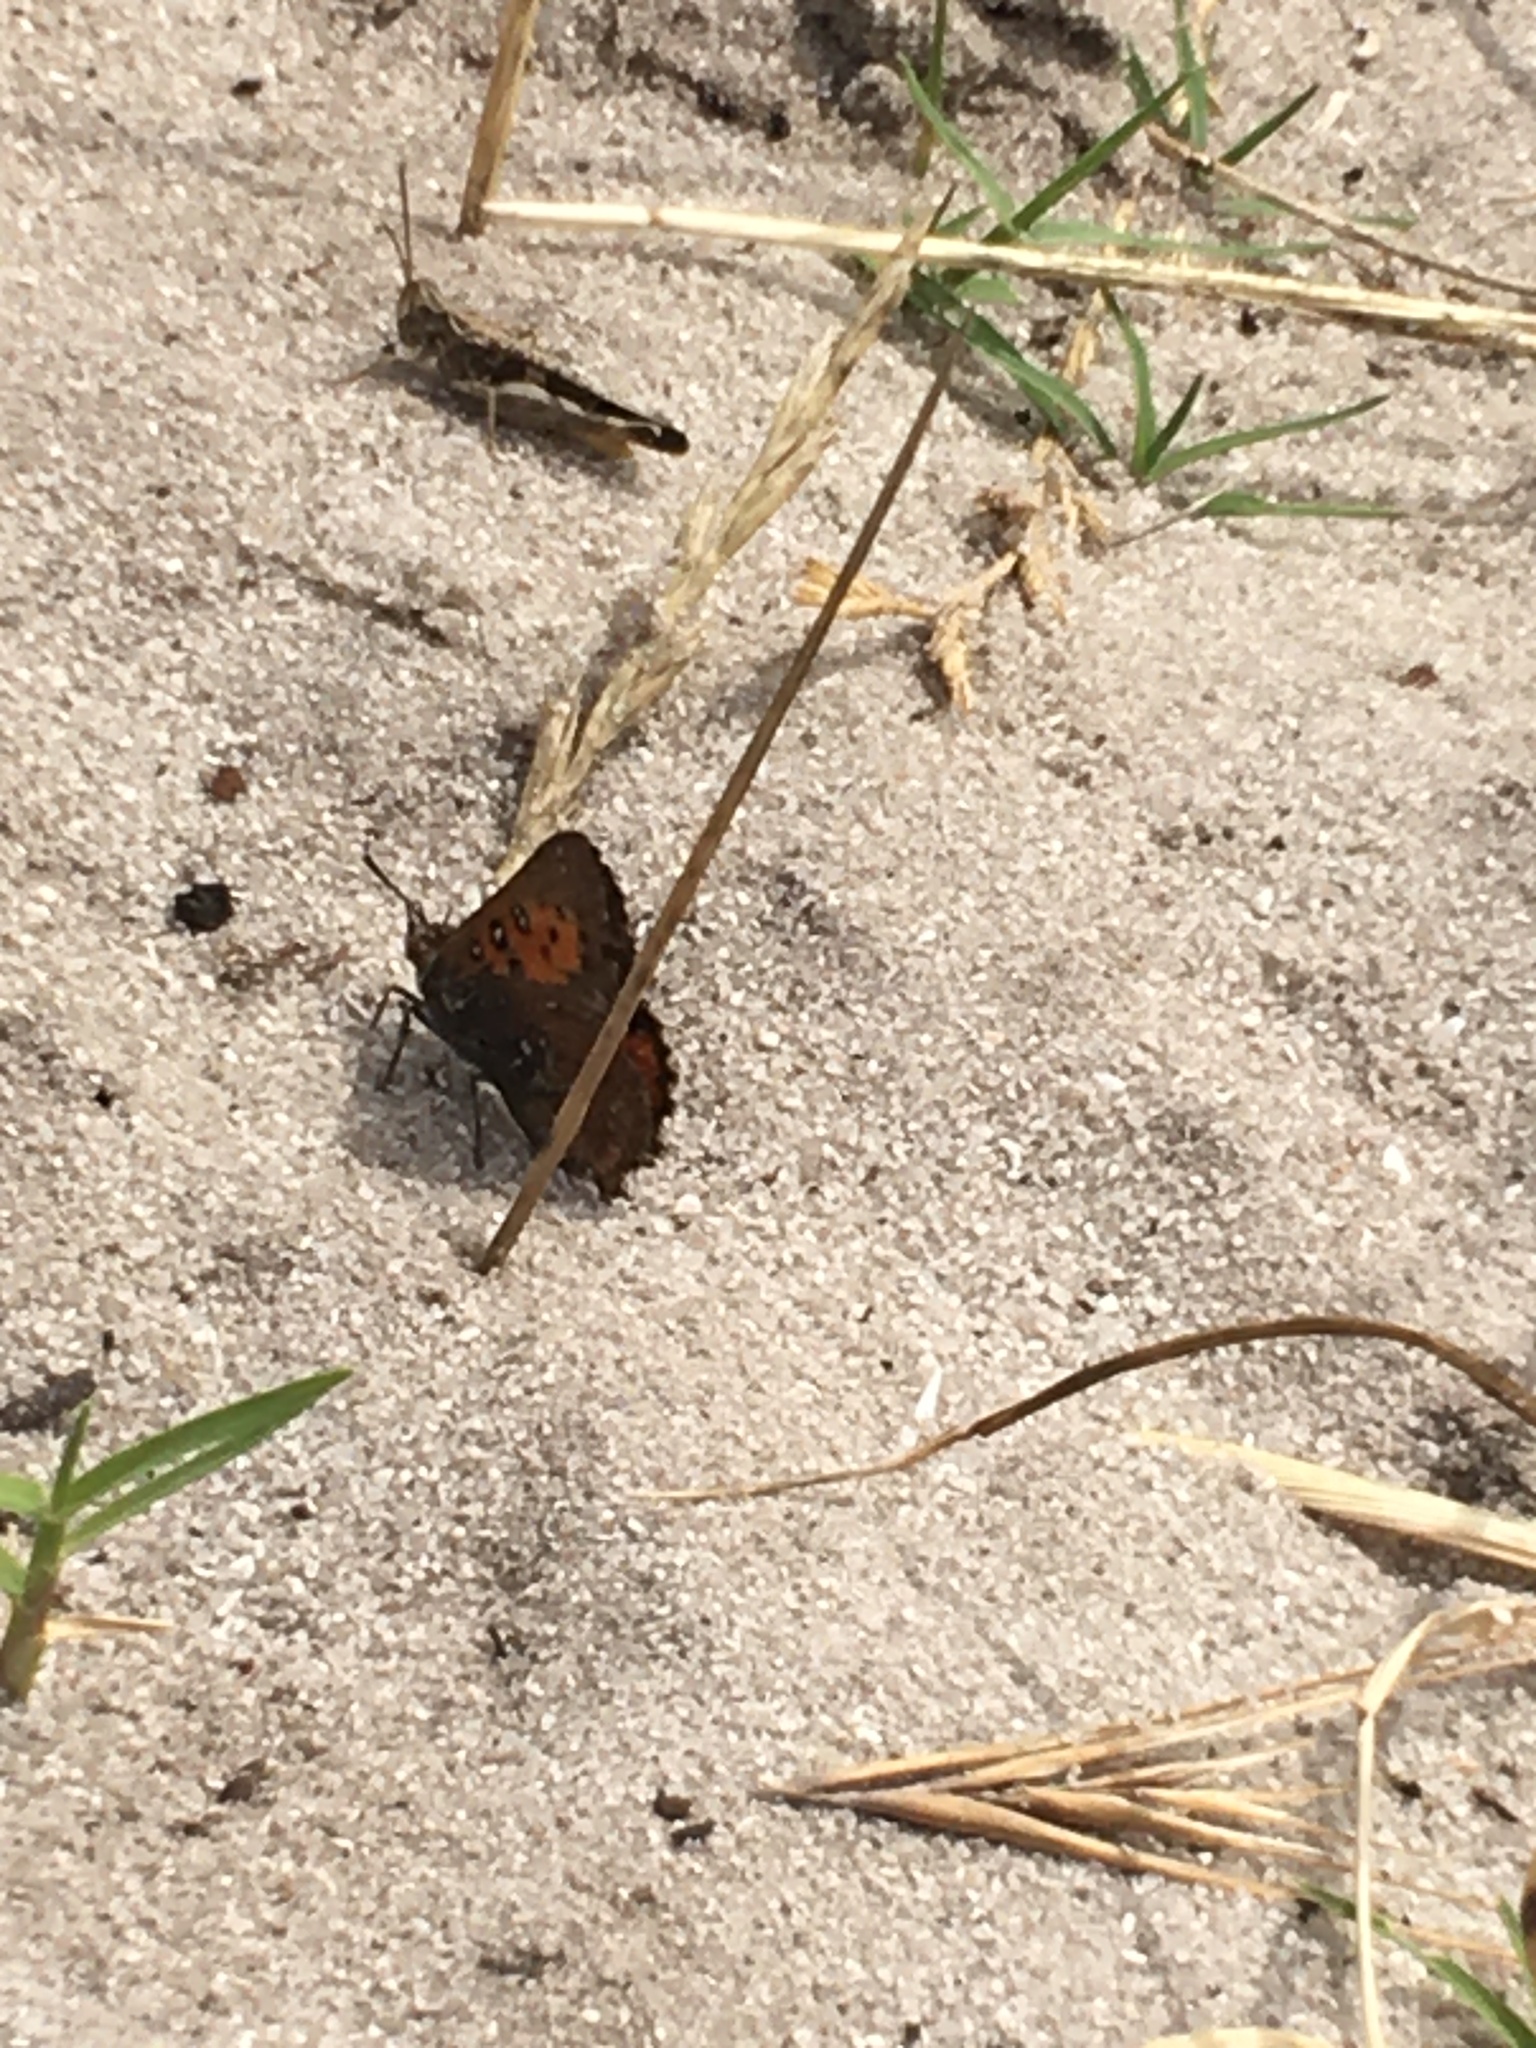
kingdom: Animalia
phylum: Arthropoda
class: Insecta
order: Lepidoptera
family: Lycaenidae
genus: Aloeides
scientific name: Aloeides thyra
